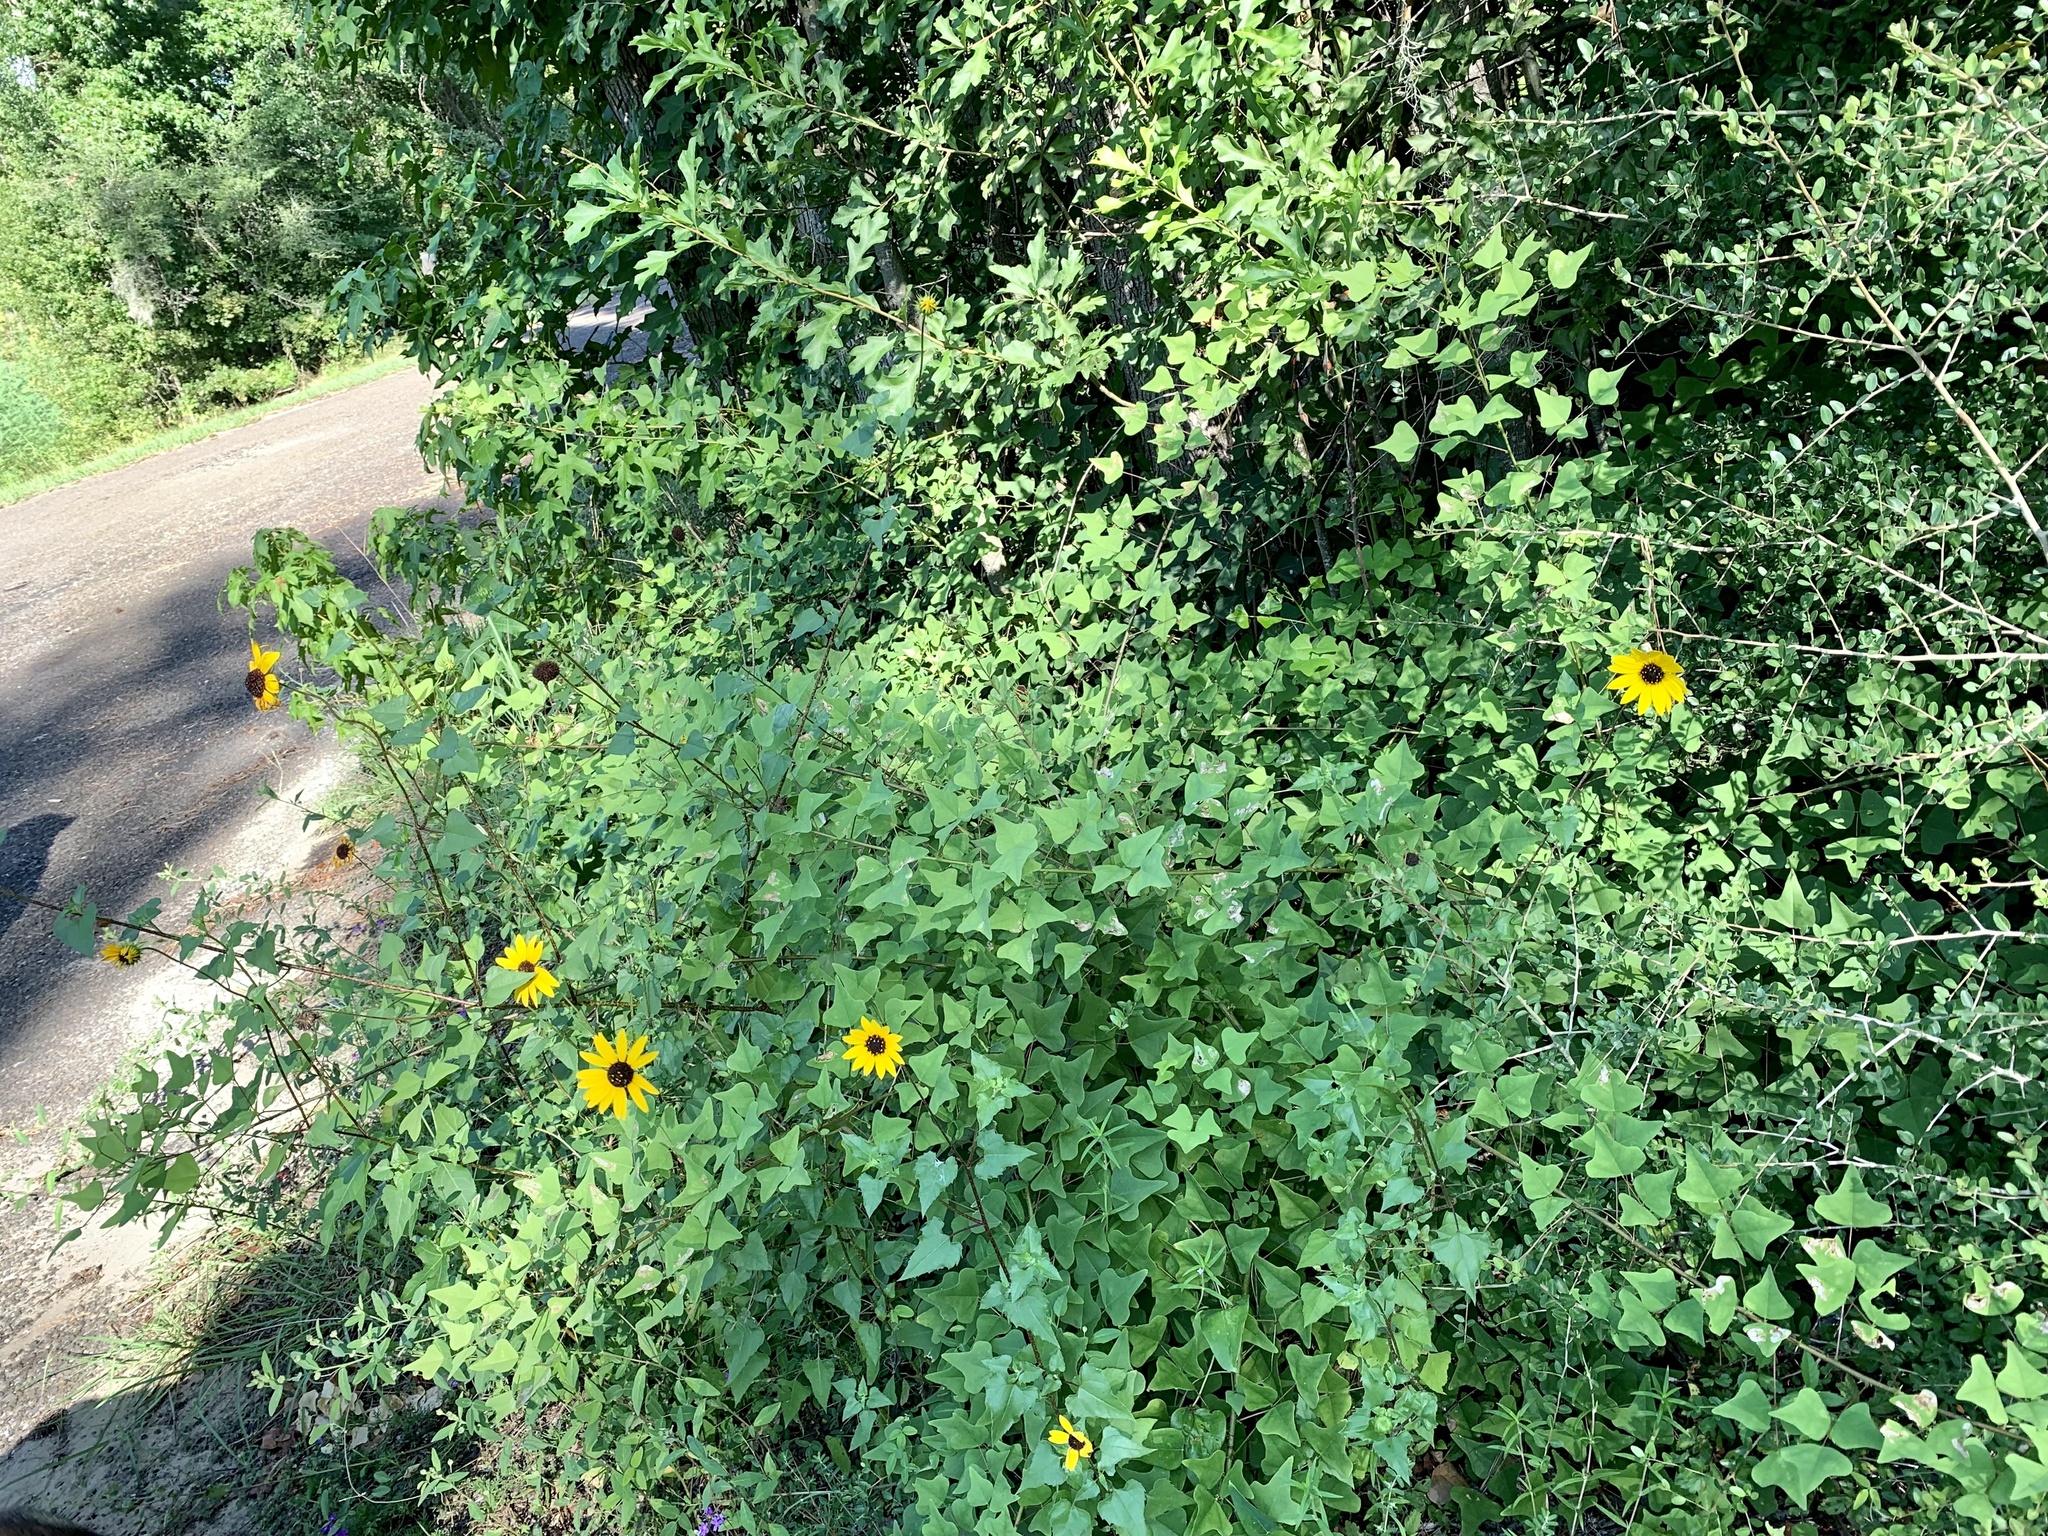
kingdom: Plantae
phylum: Tracheophyta
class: Magnoliopsida
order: Asterales
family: Asteraceae
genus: Helianthus
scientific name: Helianthus debilis
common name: Weak sunflower
